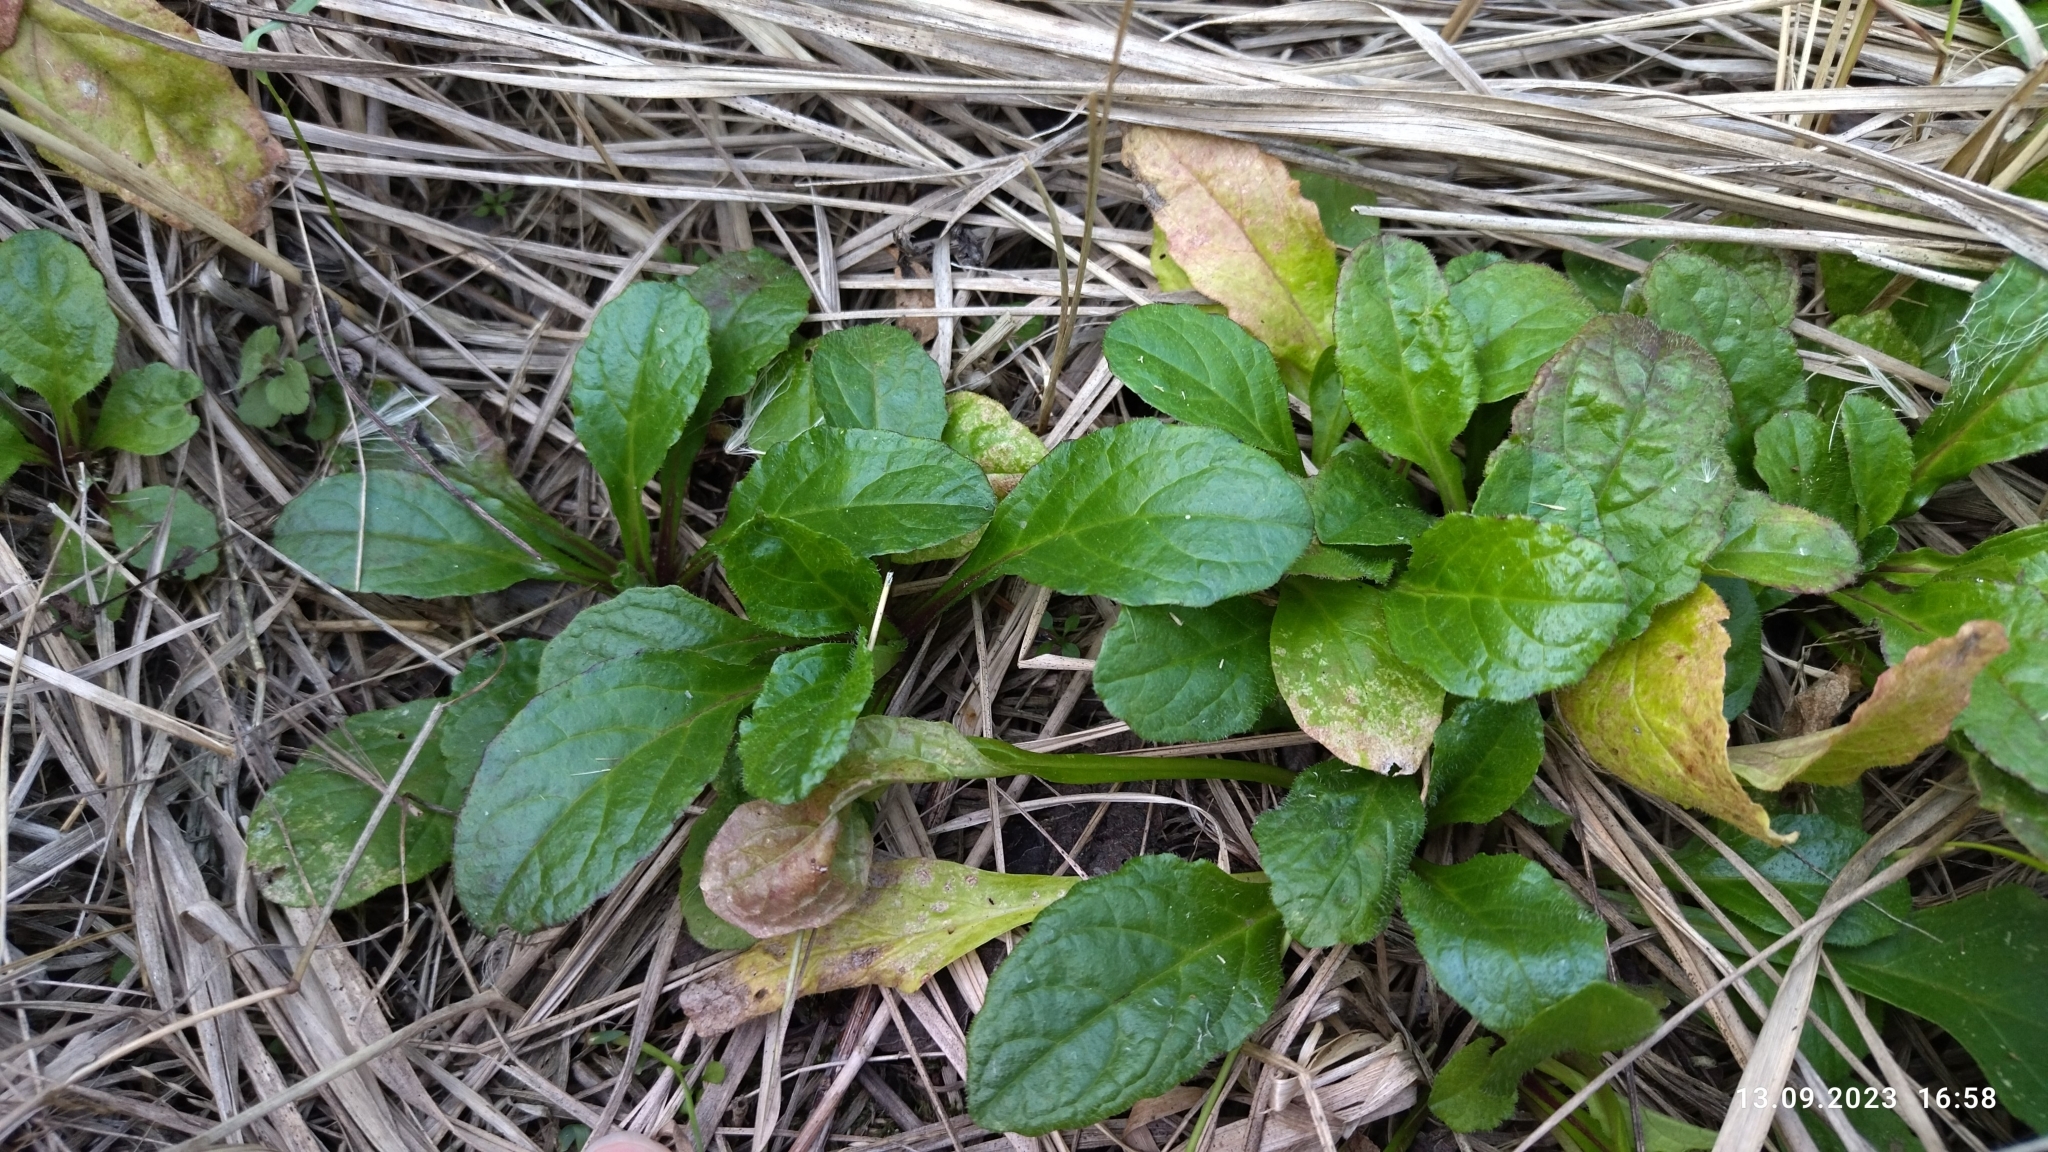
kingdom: Plantae
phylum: Tracheophyta
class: Magnoliopsida
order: Lamiales
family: Lamiaceae
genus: Ajuga
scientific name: Ajuga reptans
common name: Bugle
